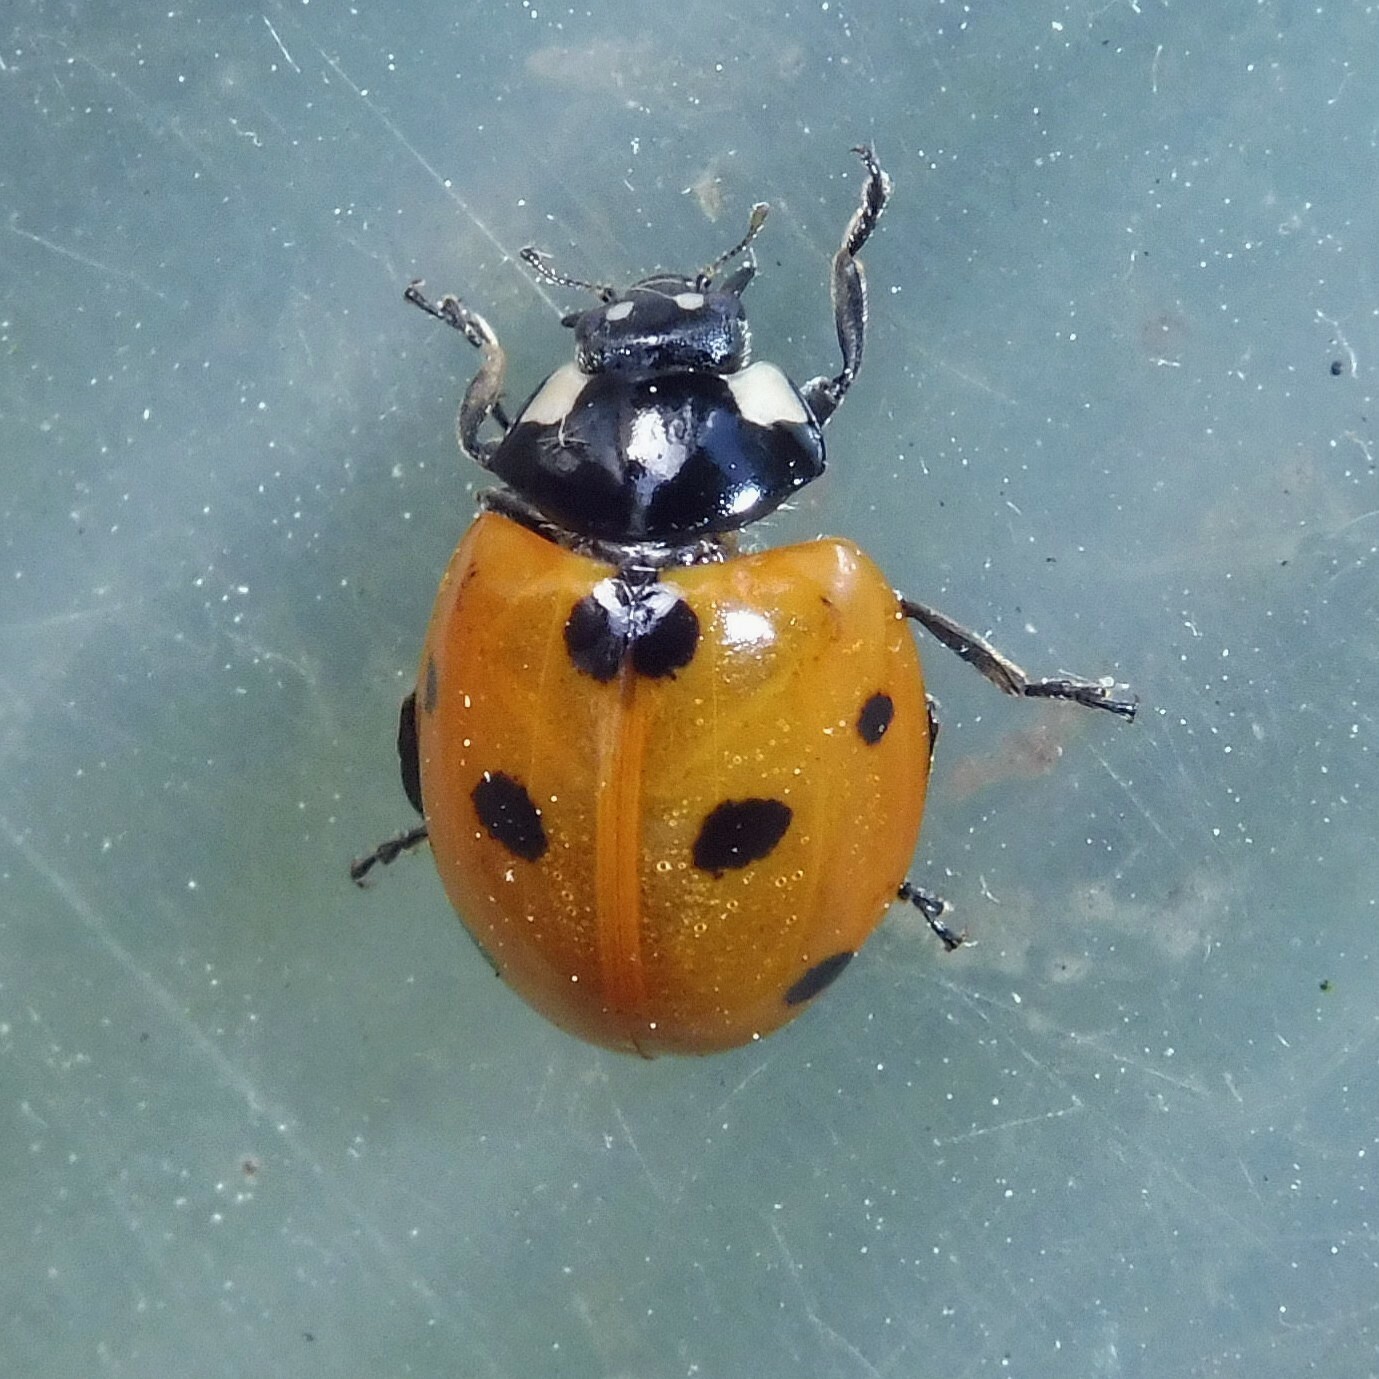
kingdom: Animalia
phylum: Arthropoda
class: Insecta
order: Coleoptera
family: Coccinellidae
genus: Coccinella
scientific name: Coccinella septempunctata
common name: Sevenspotted lady beetle
